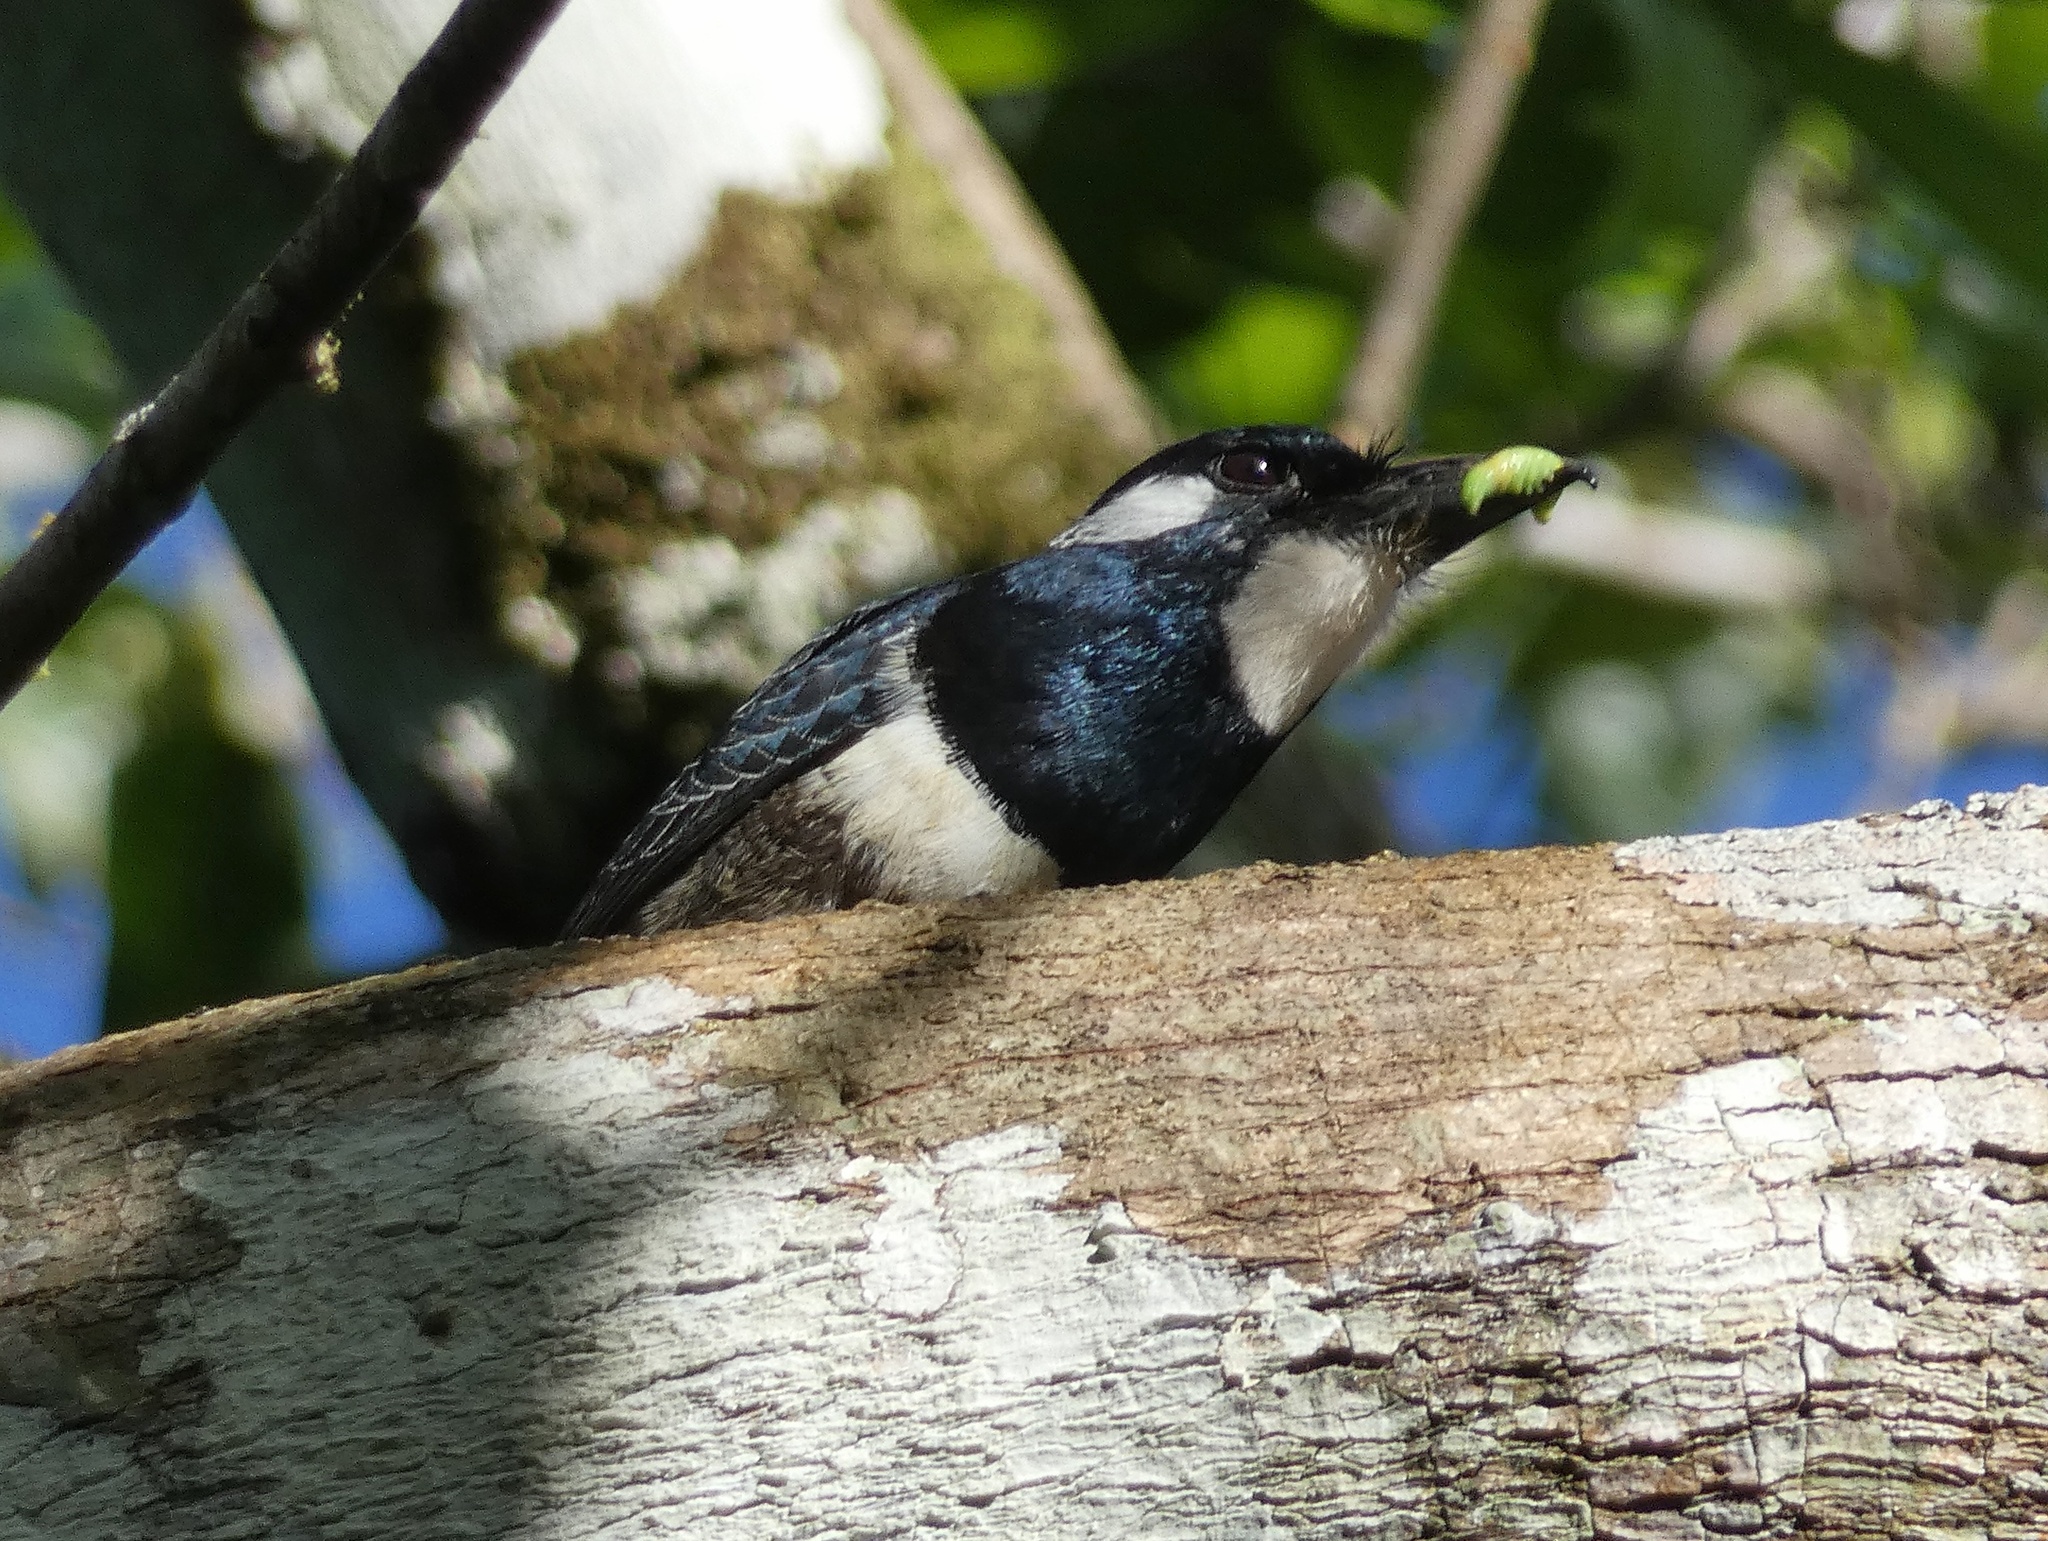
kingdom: Animalia
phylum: Chordata
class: Aves
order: Piciformes
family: Bucconidae
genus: Notharchus
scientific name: Notharchus pectoralis
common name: Black-breasted puffbird
